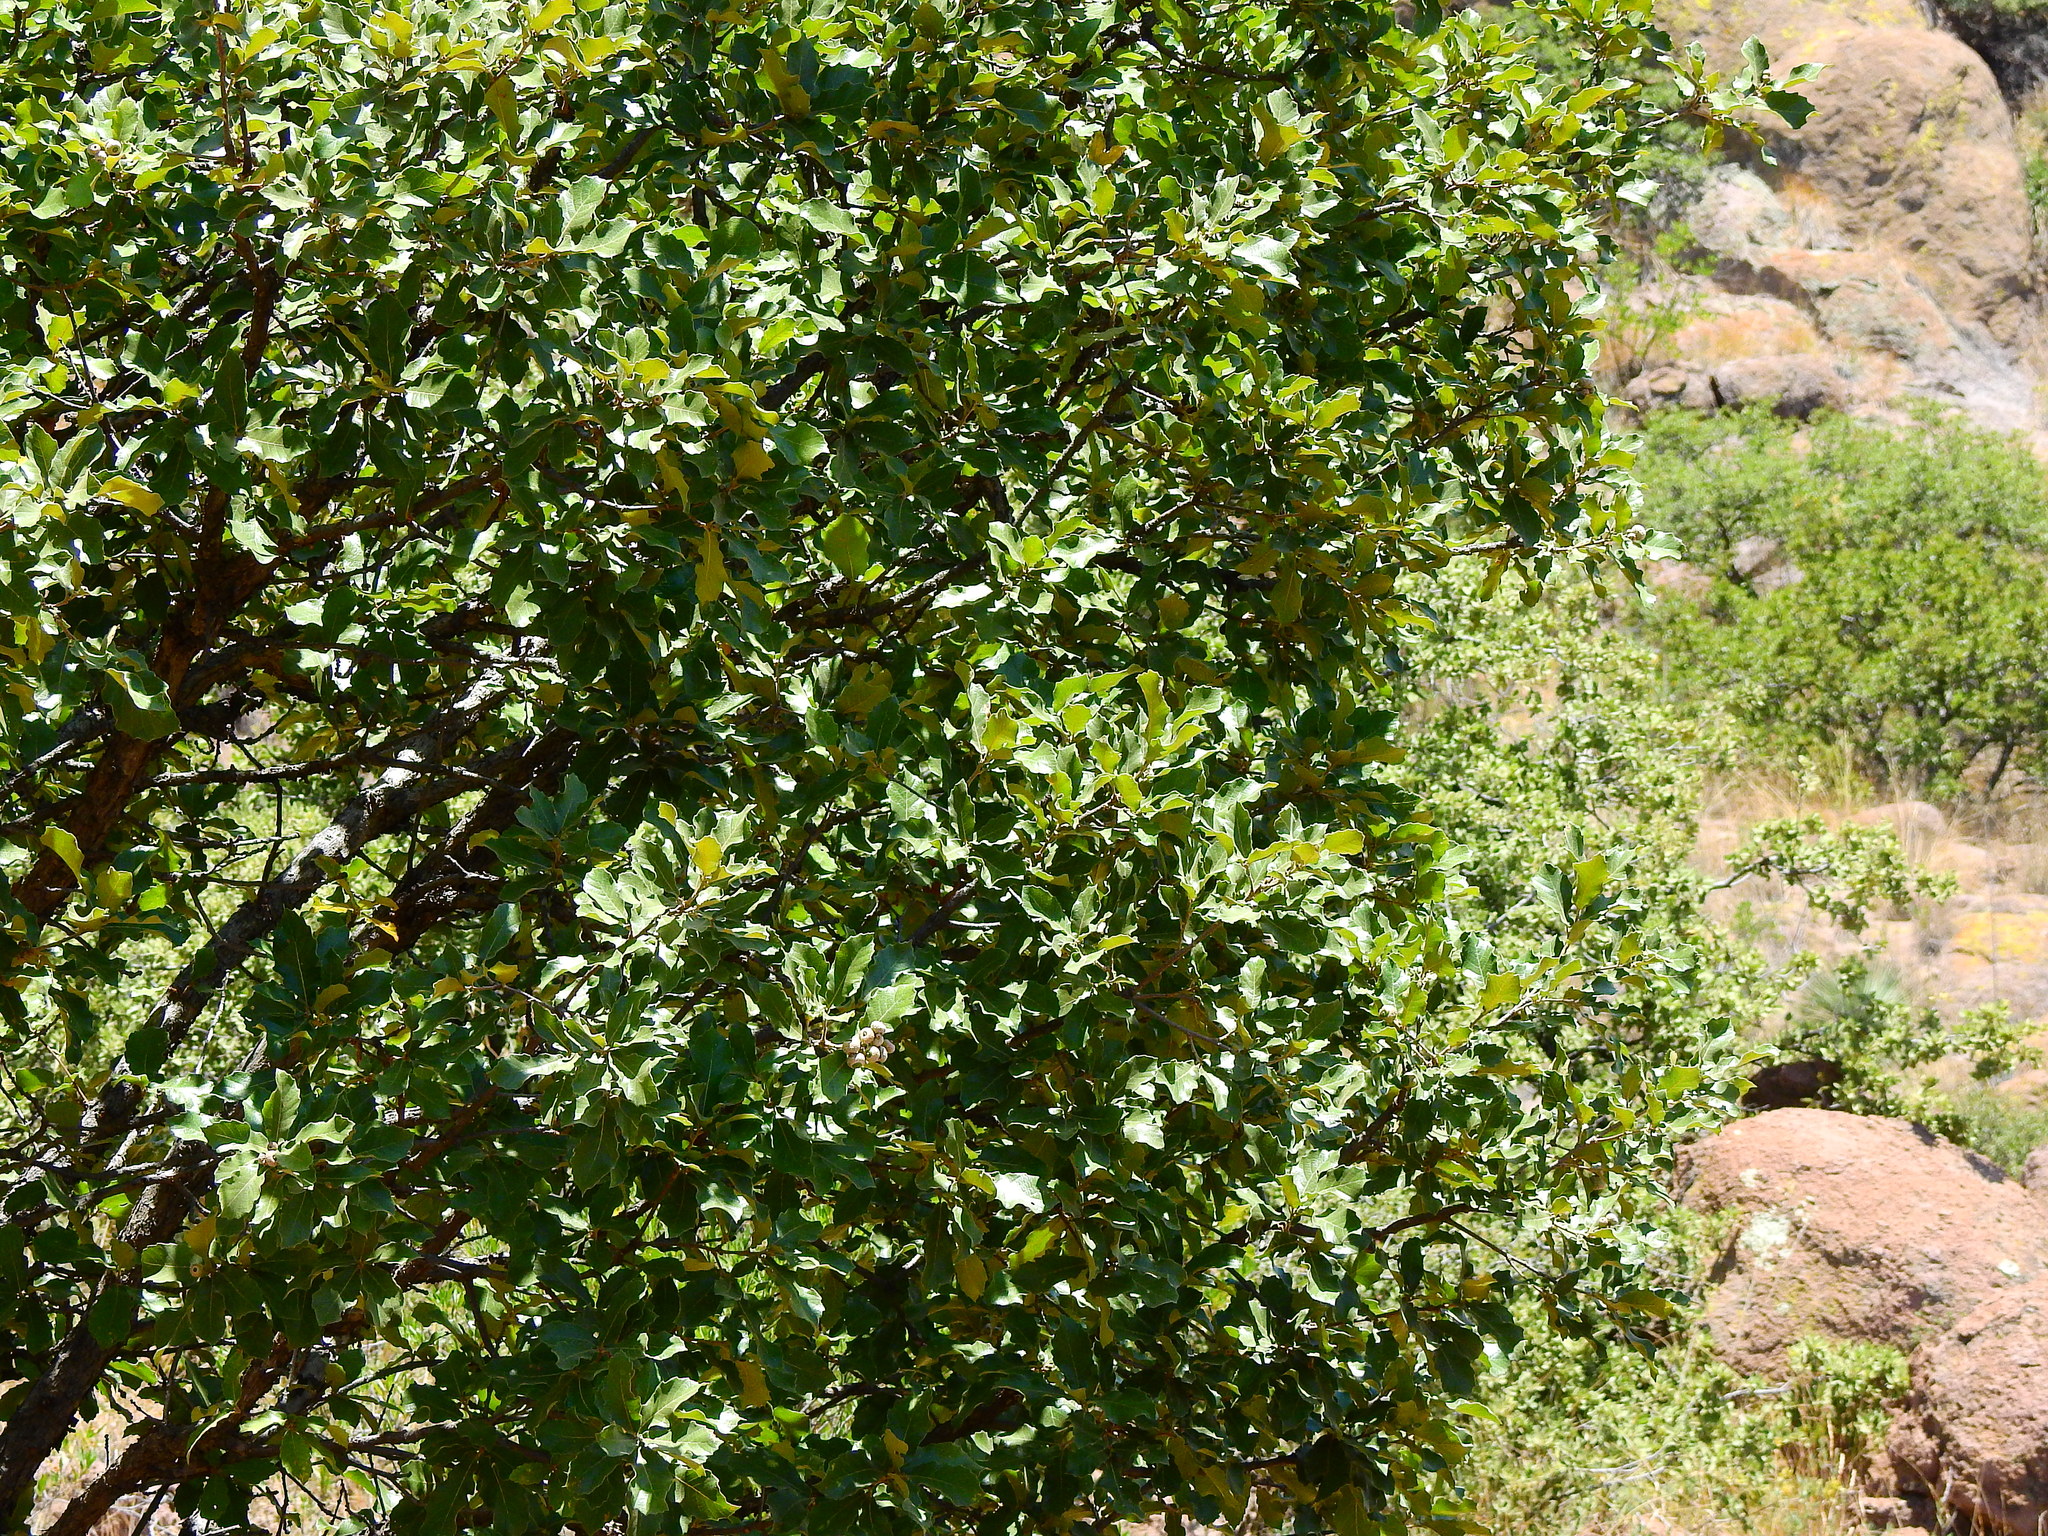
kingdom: Plantae
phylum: Tracheophyta
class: Magnoliopsida
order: Fagales
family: Fagaceae
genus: Quercus
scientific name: Quercus potosina
